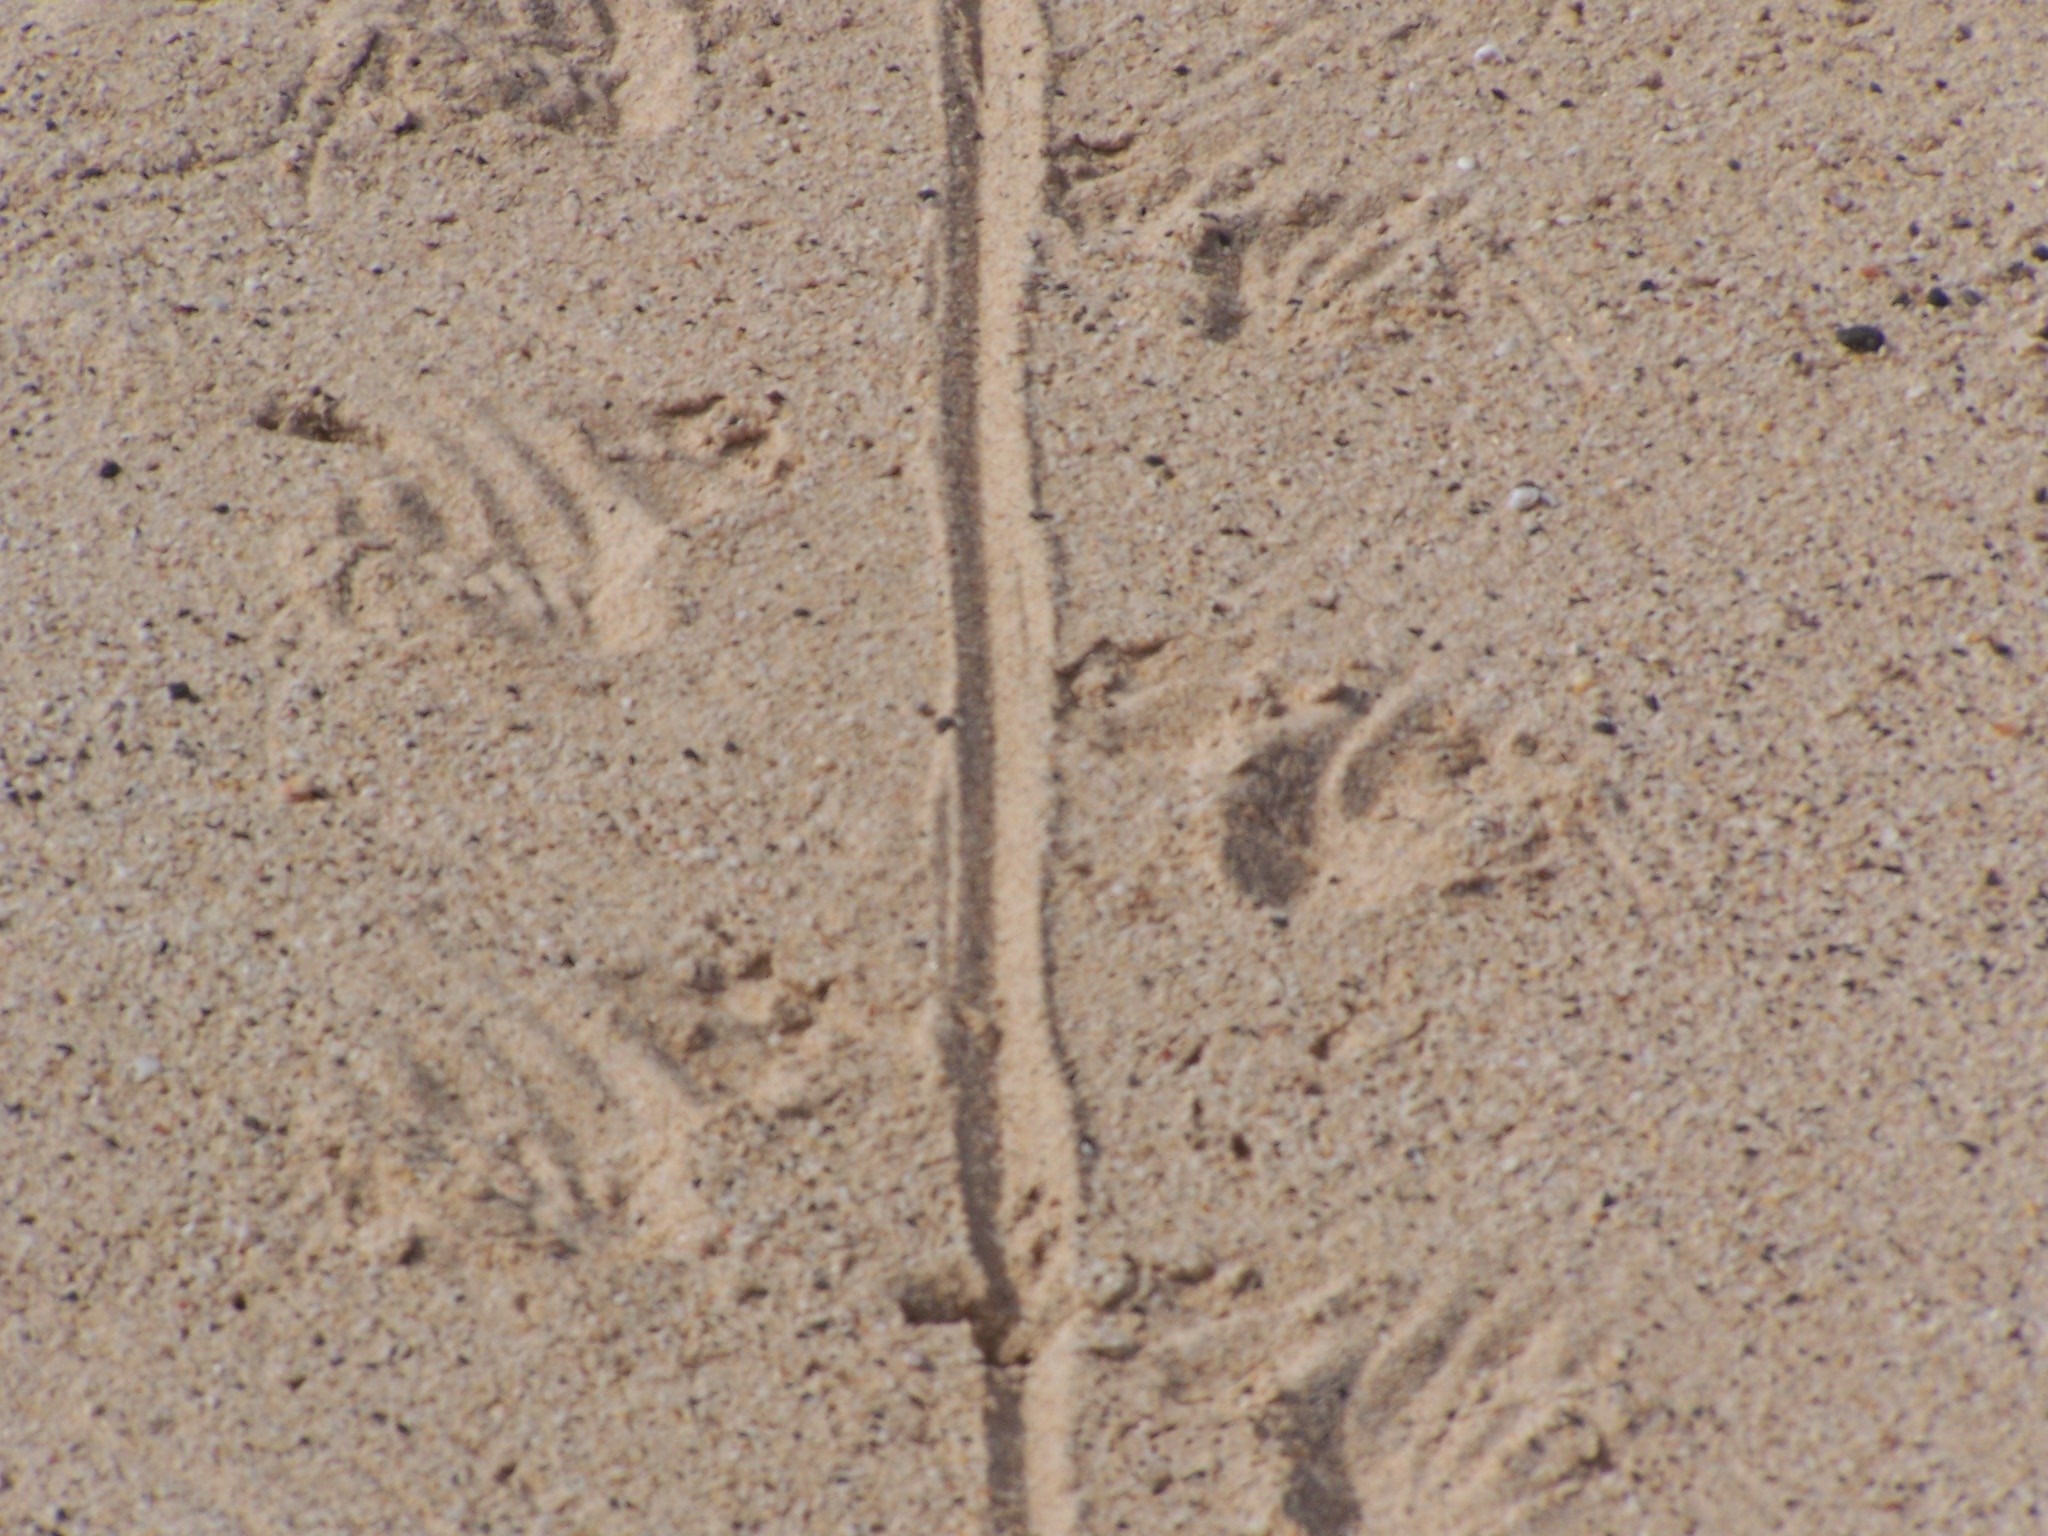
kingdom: Animalia
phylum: Chordata
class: Squamata
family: Iguanidae
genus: Amblyrhynchus
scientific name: Amblyrhynchus cristatus
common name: Marine iguana
